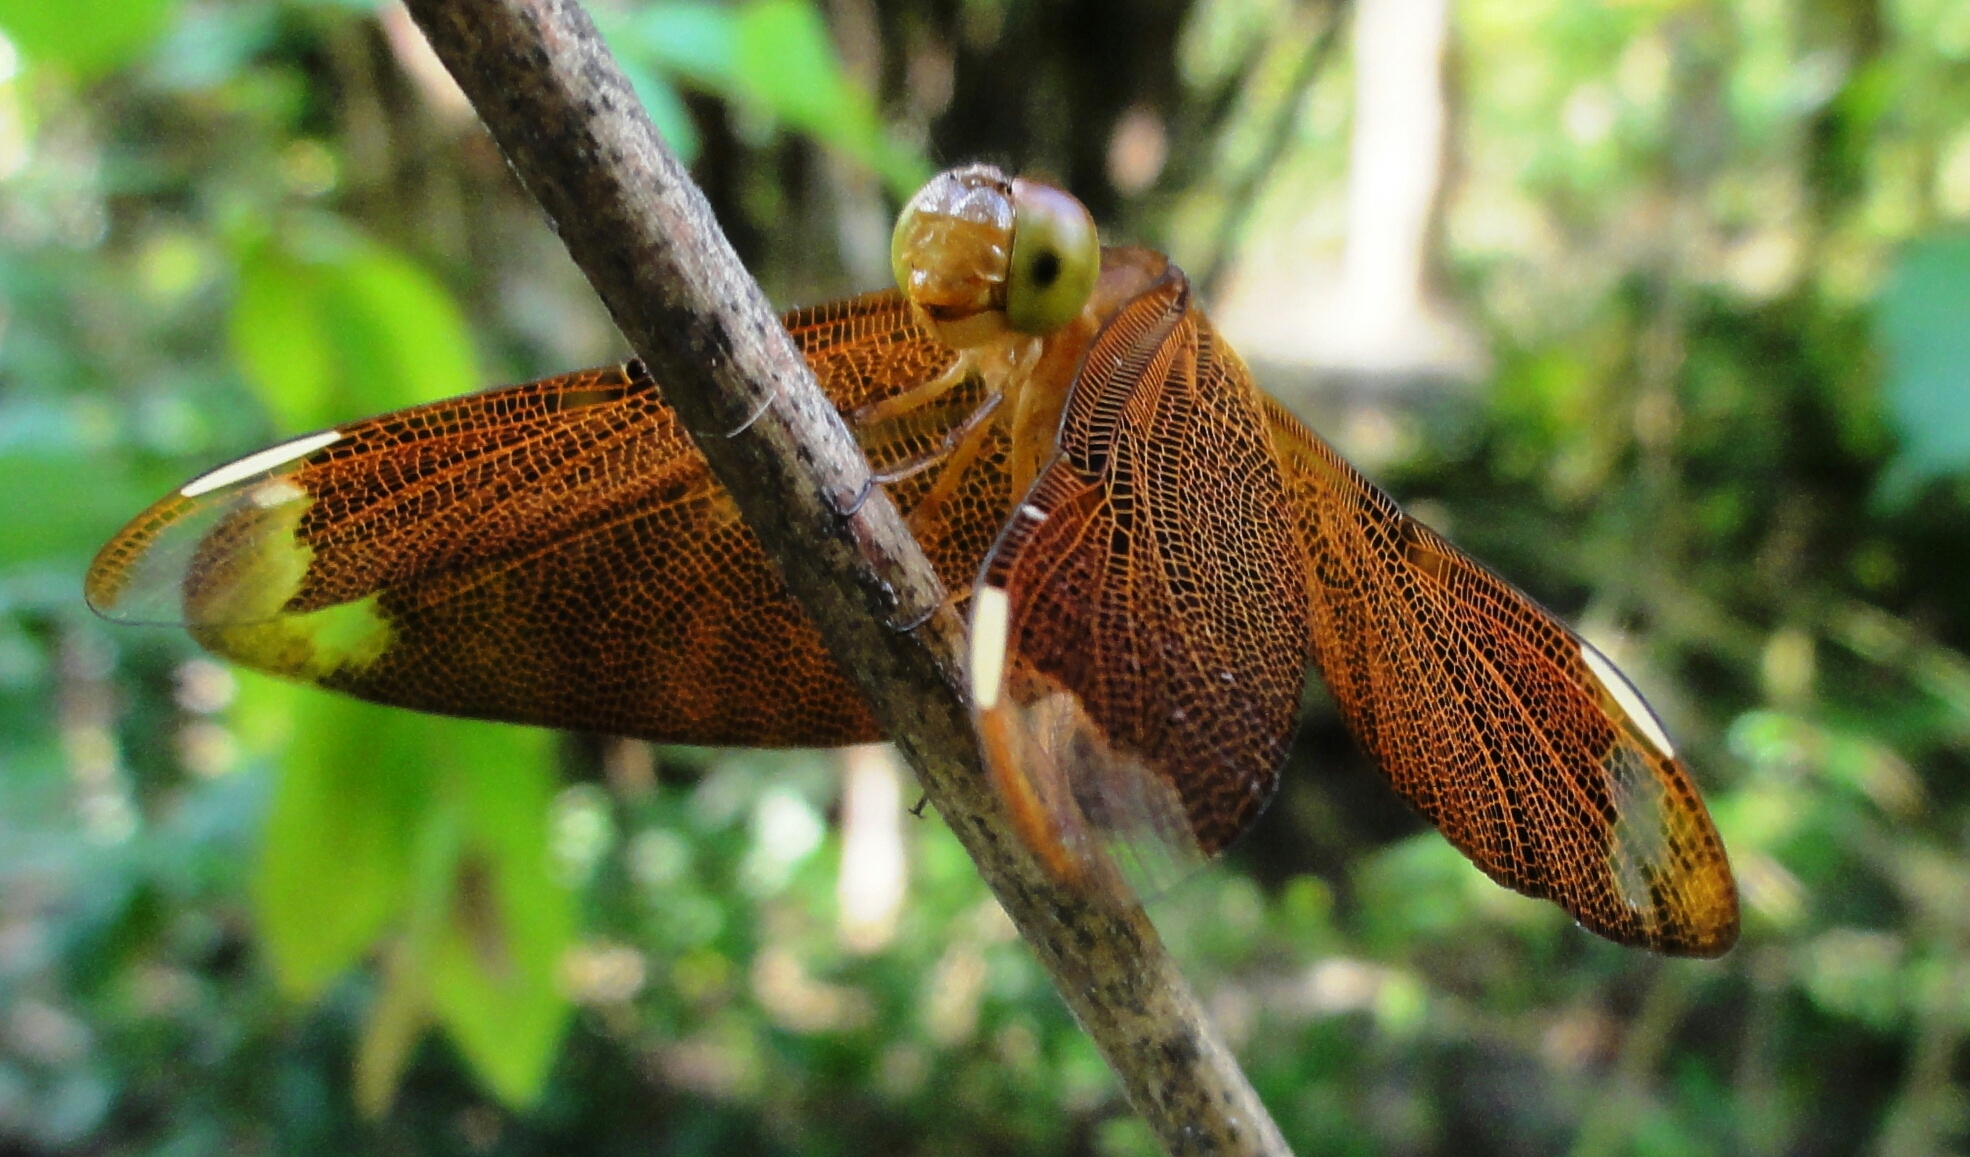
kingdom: Animalia
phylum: Arthropoda
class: Insecta
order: Odonata
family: Libellulidae
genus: Neurothemis
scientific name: Neurothemis fulvia
